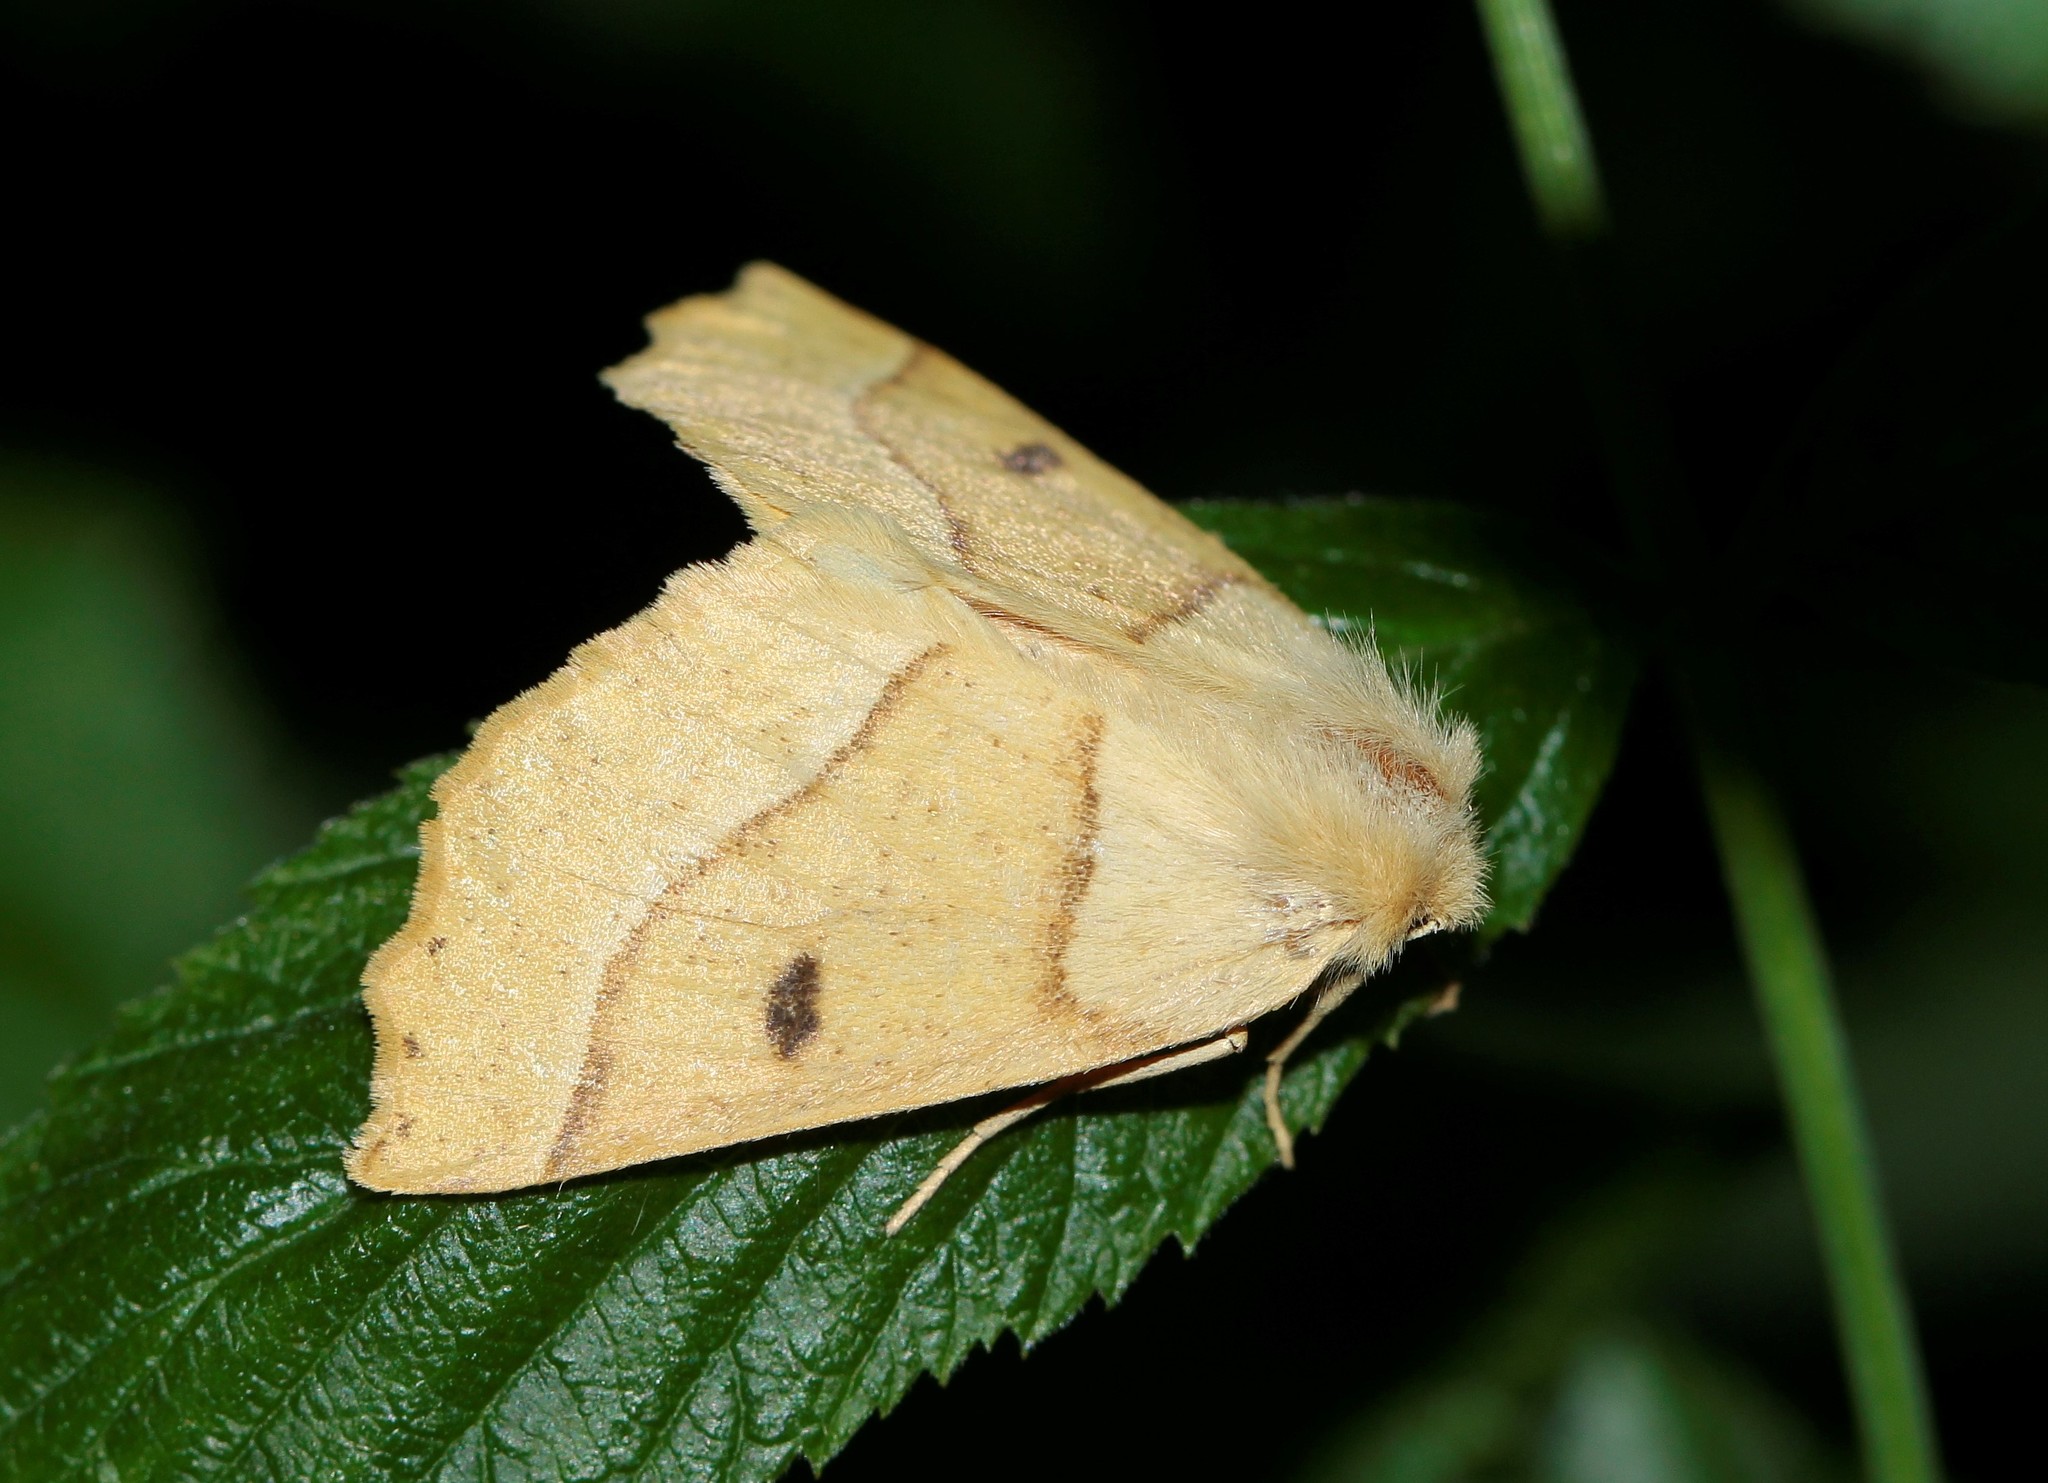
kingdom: Animalia
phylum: Arthropoda
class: Insecta
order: Lepidoptera
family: Geometridae
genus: Crocallis
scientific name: Crocallis elinguaria
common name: Scalloped oak
